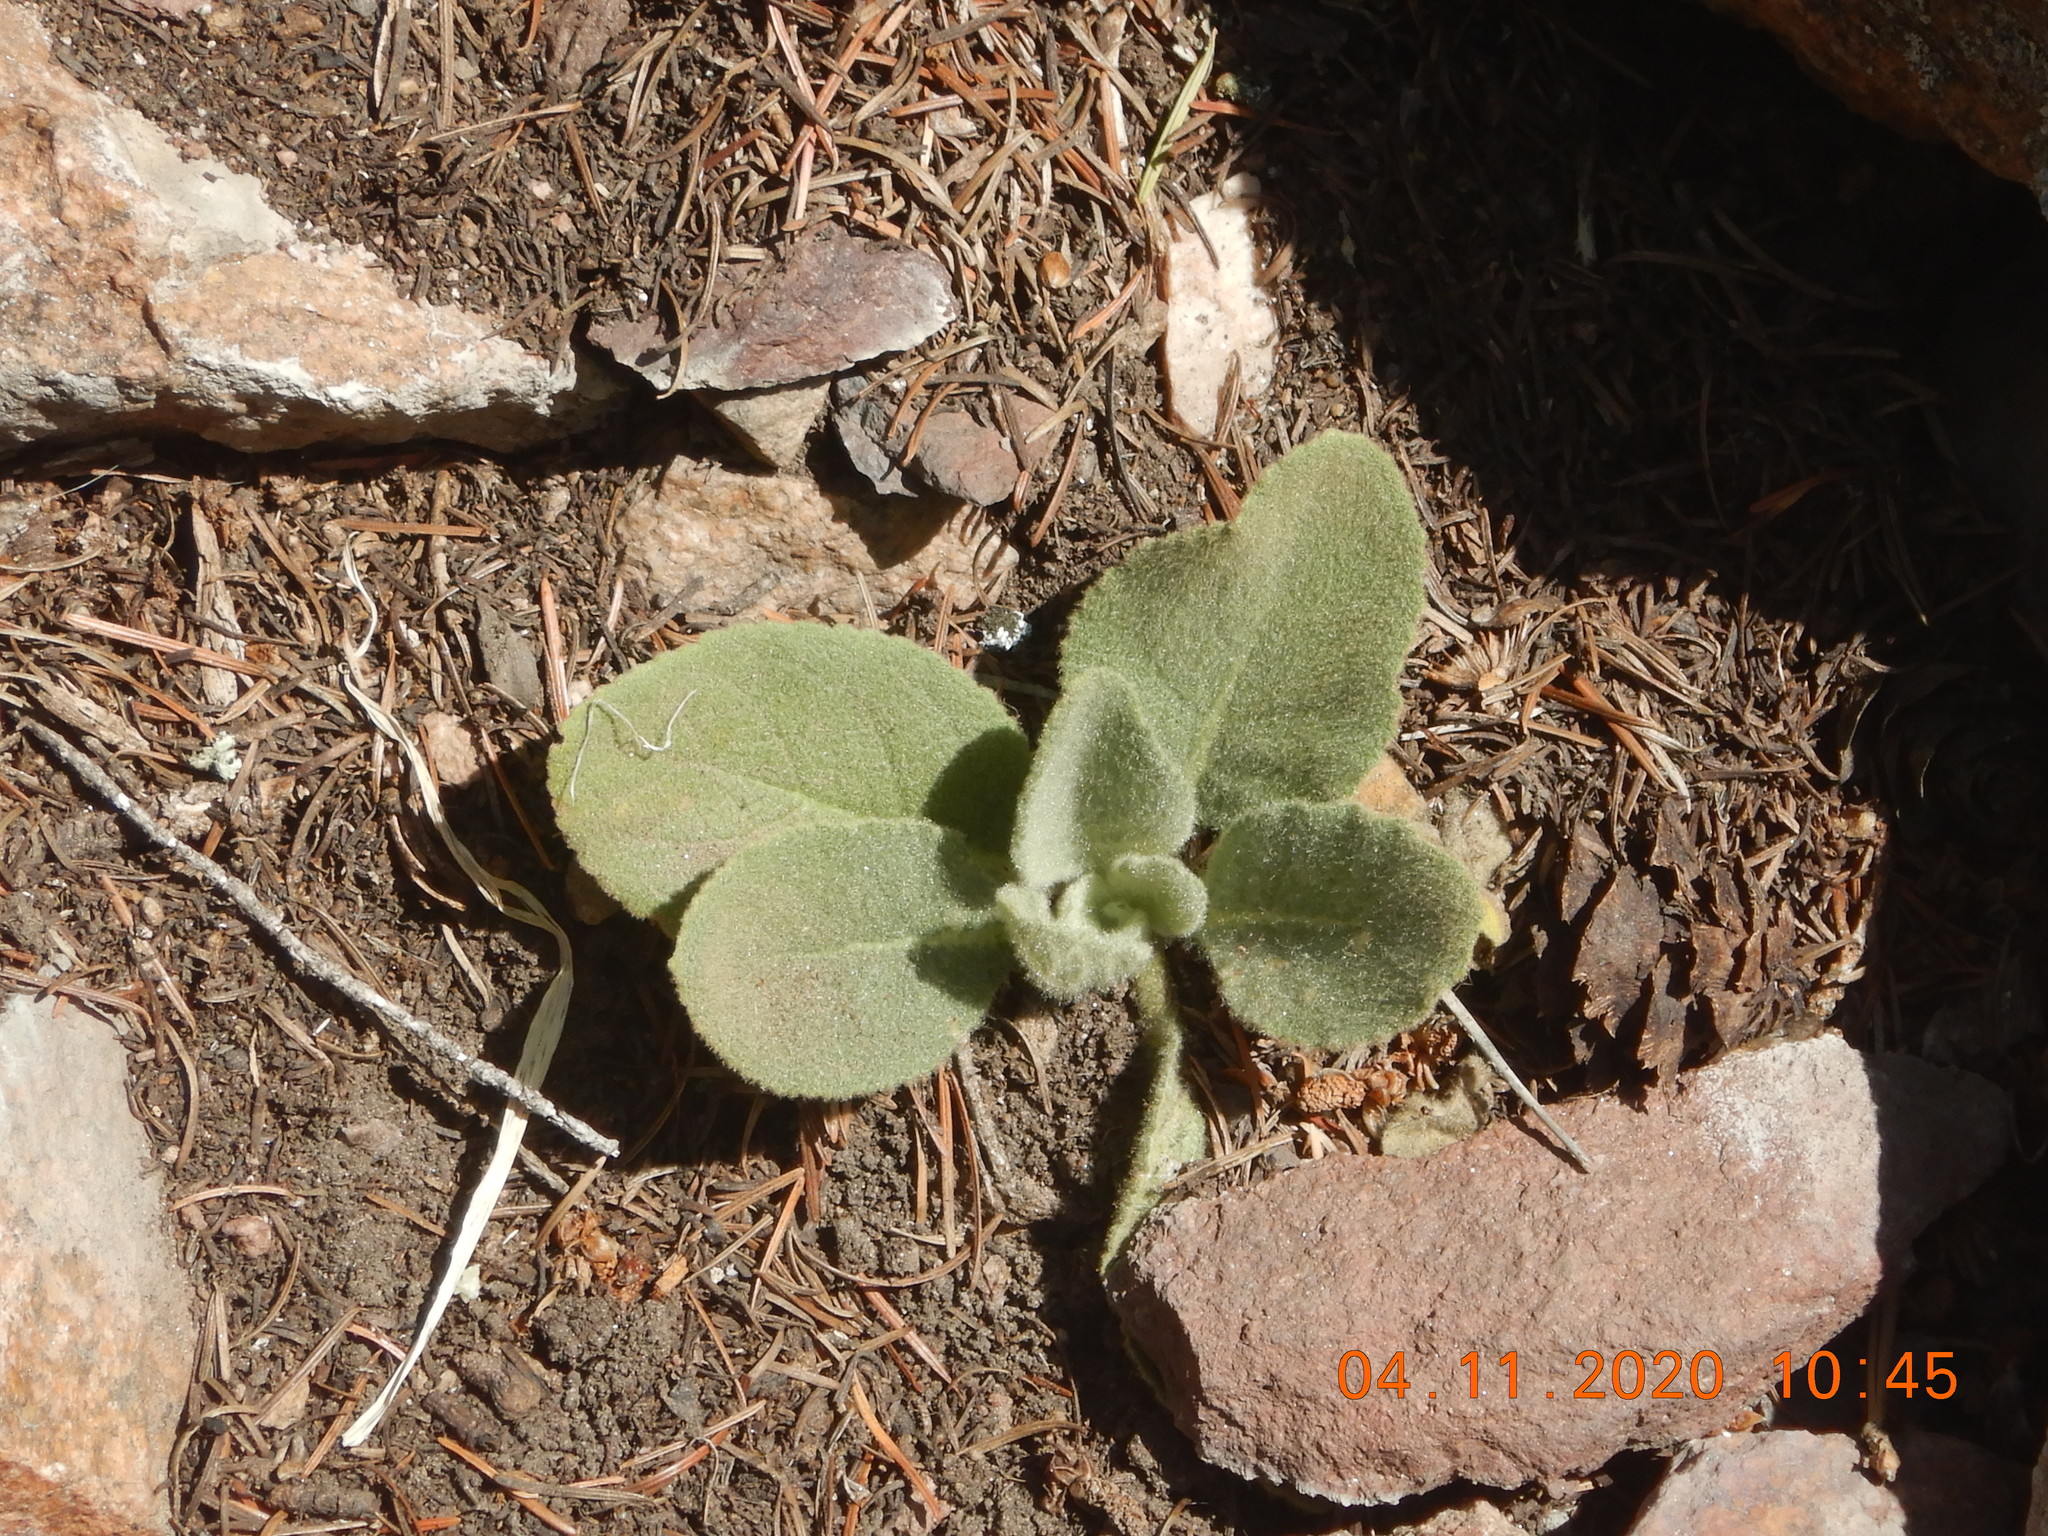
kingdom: Plantae
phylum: Tracheophyta
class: Magnoliopsida
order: Lamiales
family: Scrophulariaceae
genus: Verbascum
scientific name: Verbascum thapsus
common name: Common mullein
